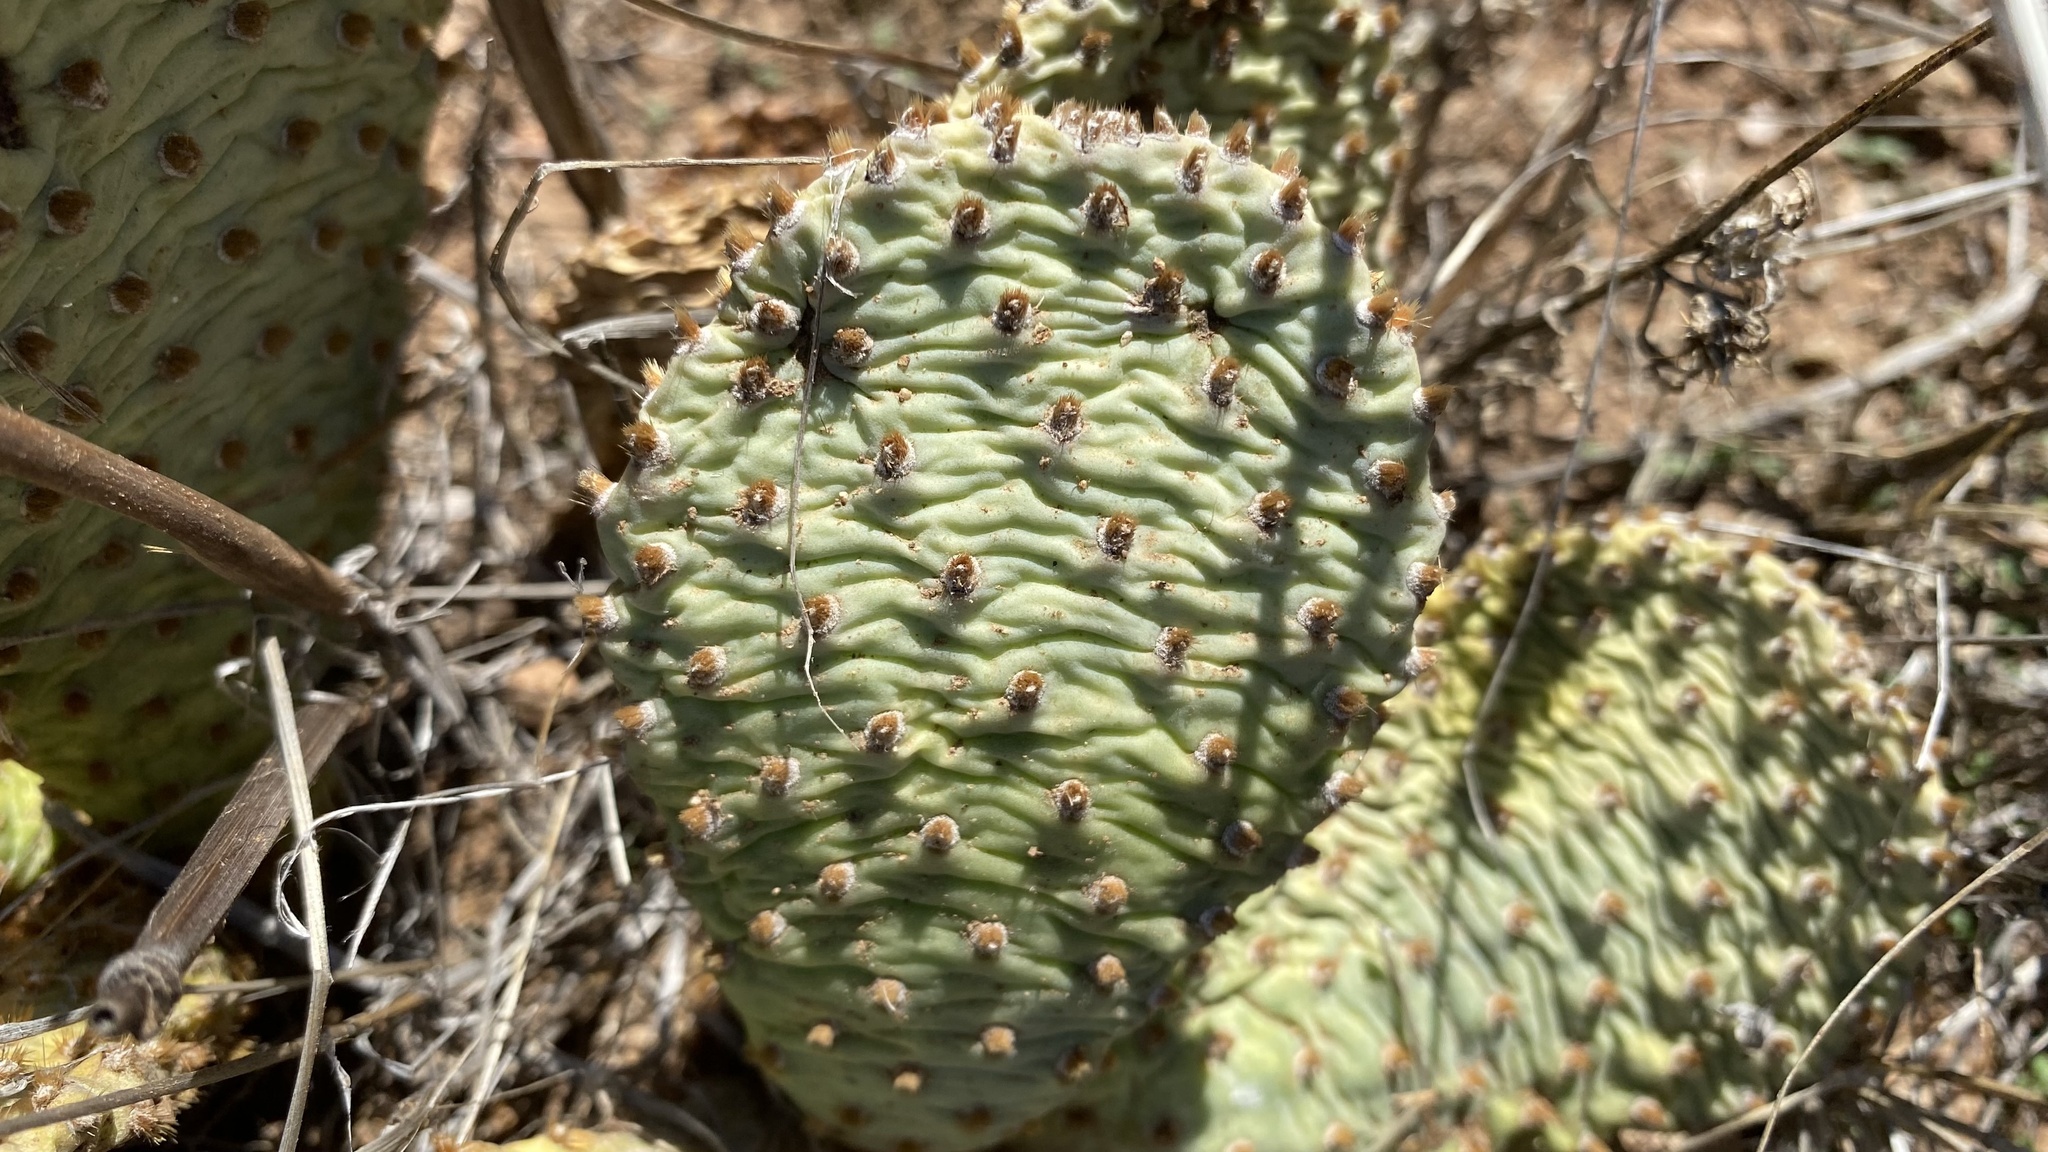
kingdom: Plantae
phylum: Tracheophyta
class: Magnoliopsida
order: Caryophyllales
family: Cactaceae
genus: Opuntia
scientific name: Opuntia basilaris
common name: Beavertail prickly-pear
